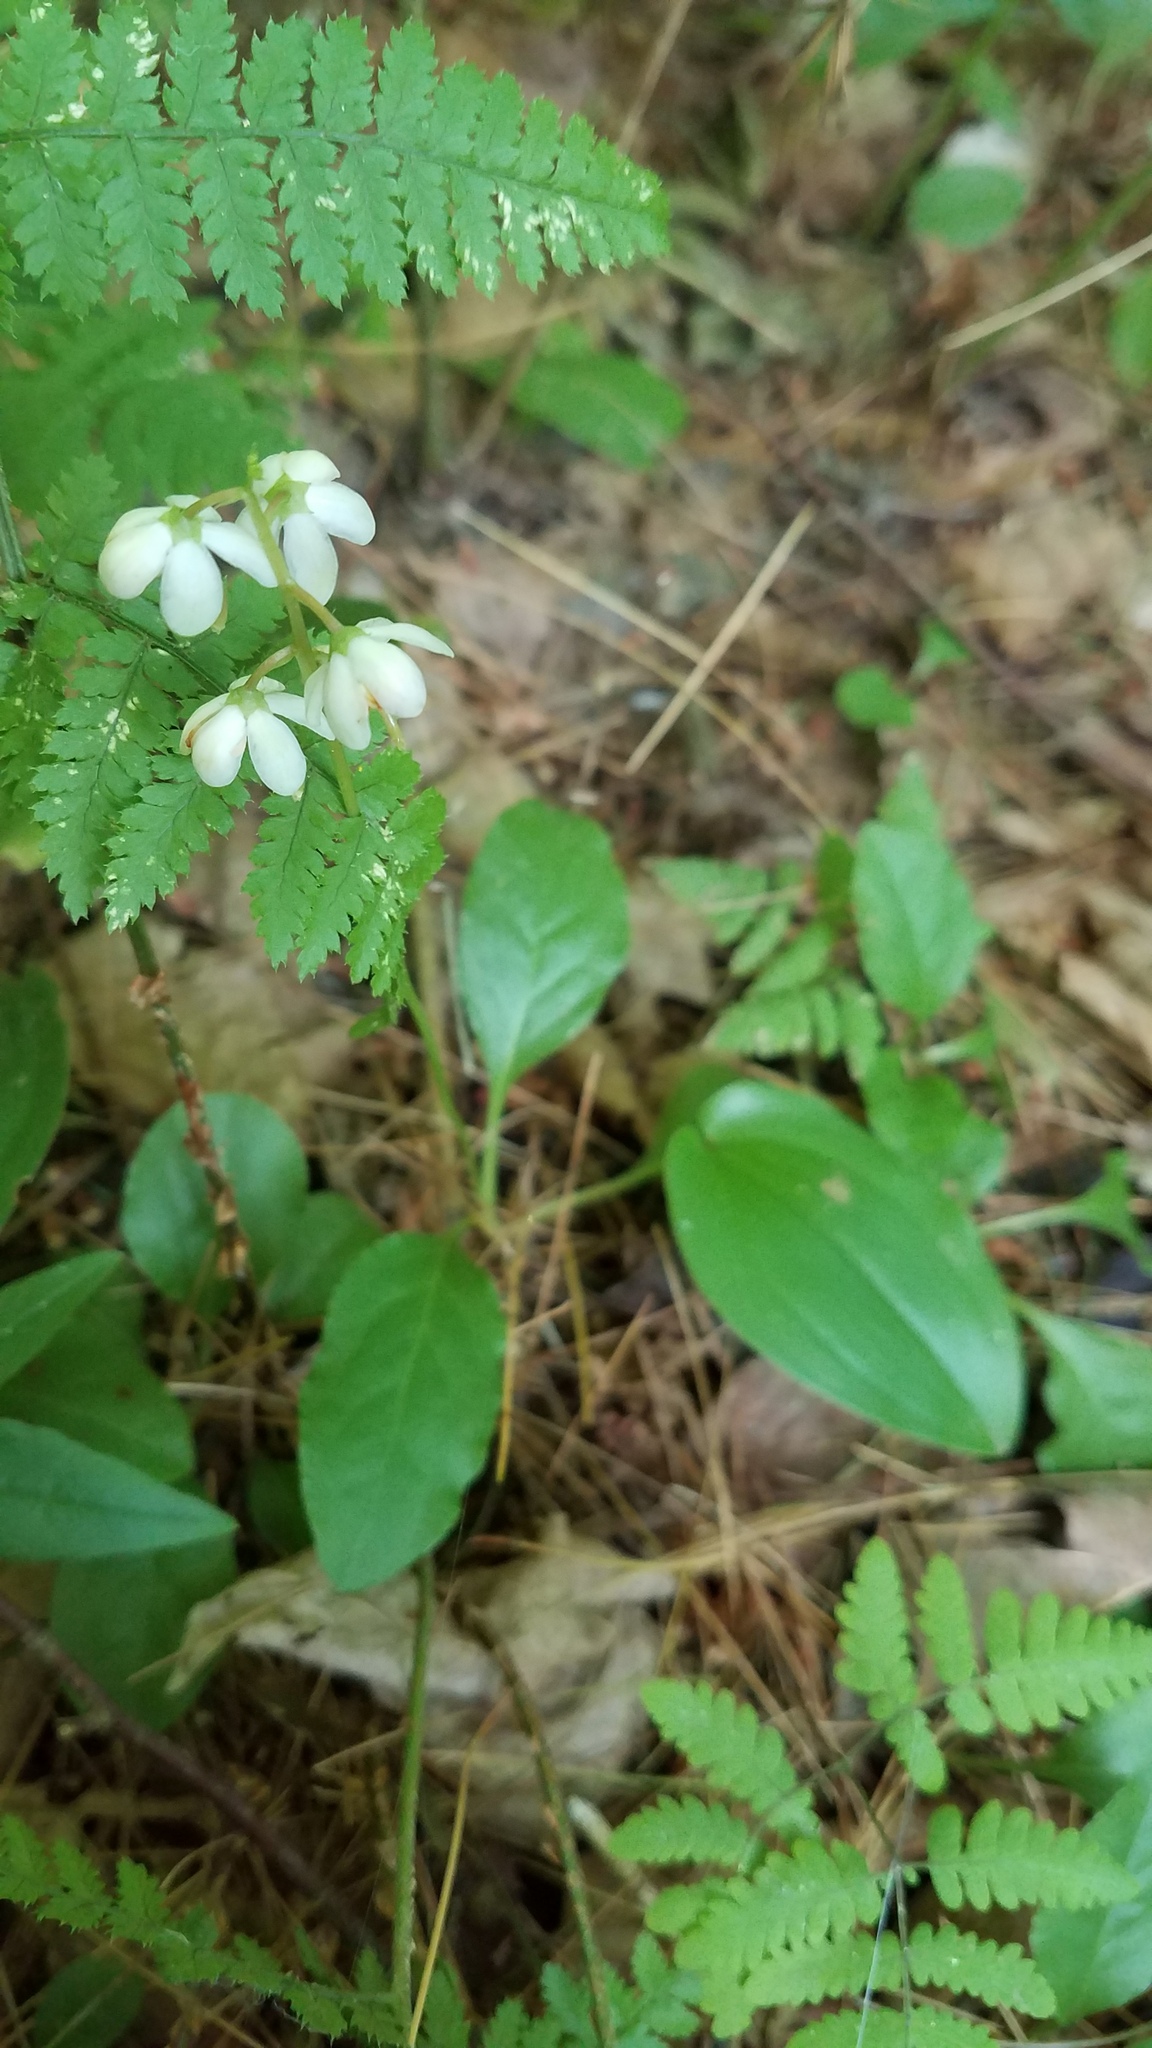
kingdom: Plantae
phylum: Tracheophyta
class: Magnoliopsida
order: Ericales
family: Ericaceae
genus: Pyrola
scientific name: Pyrola elliptica
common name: Shinleaf
